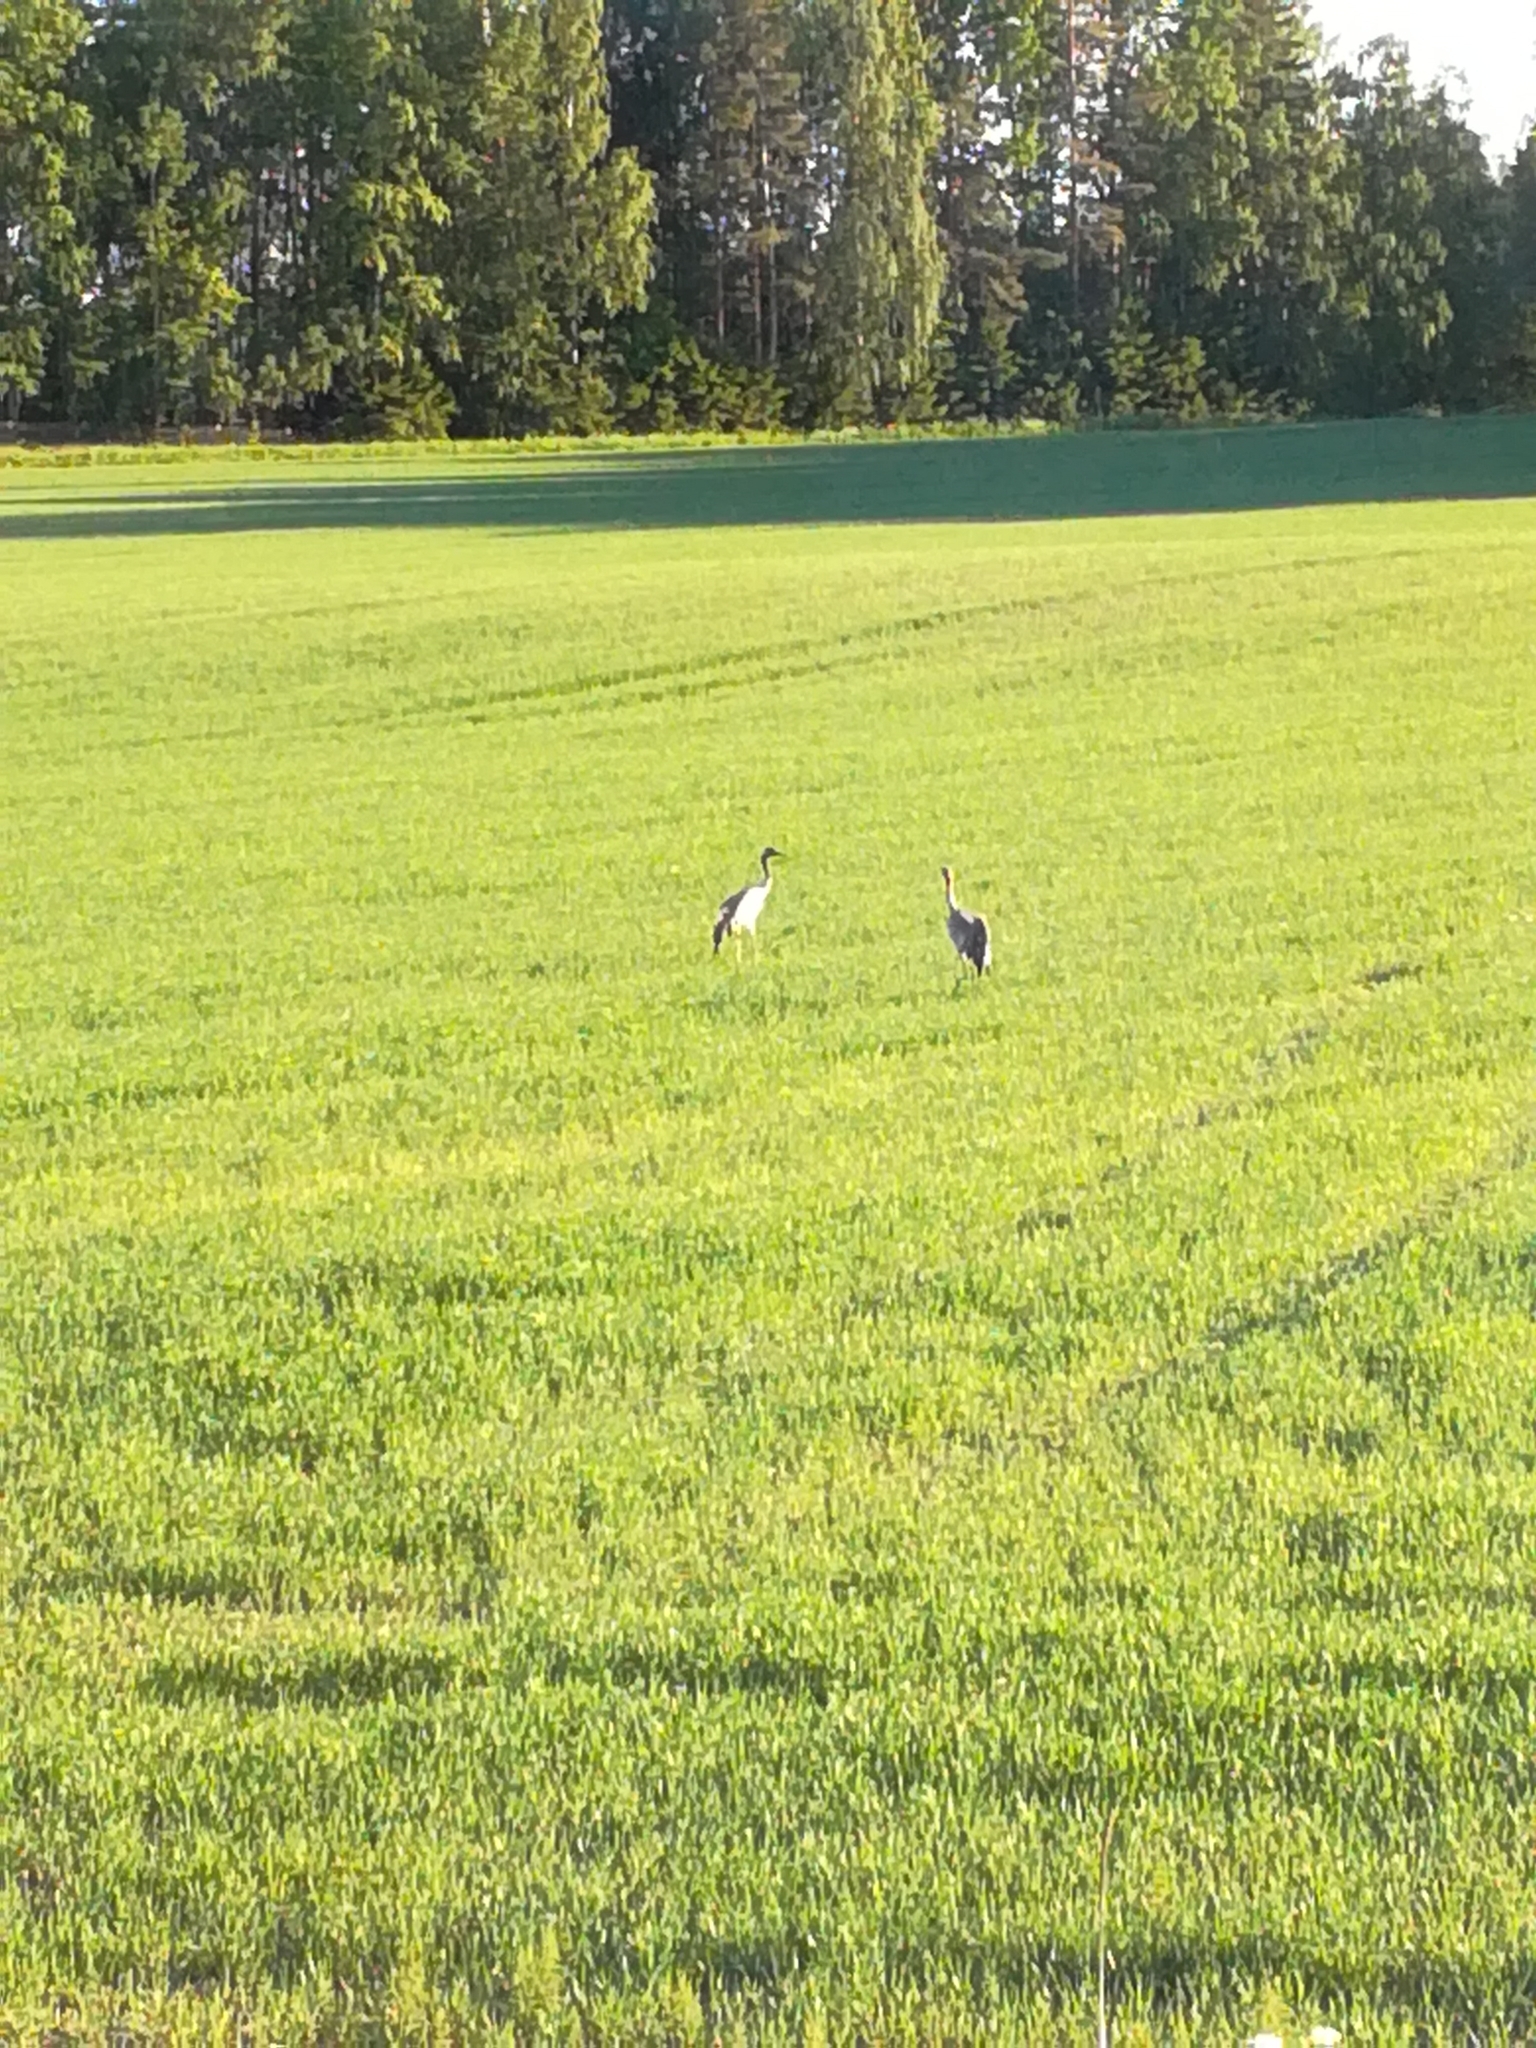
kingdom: Animalia
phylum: Chordata
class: Aves
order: Gruiformes
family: Gruidae
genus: Grus
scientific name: Grus grus
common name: Common crane
